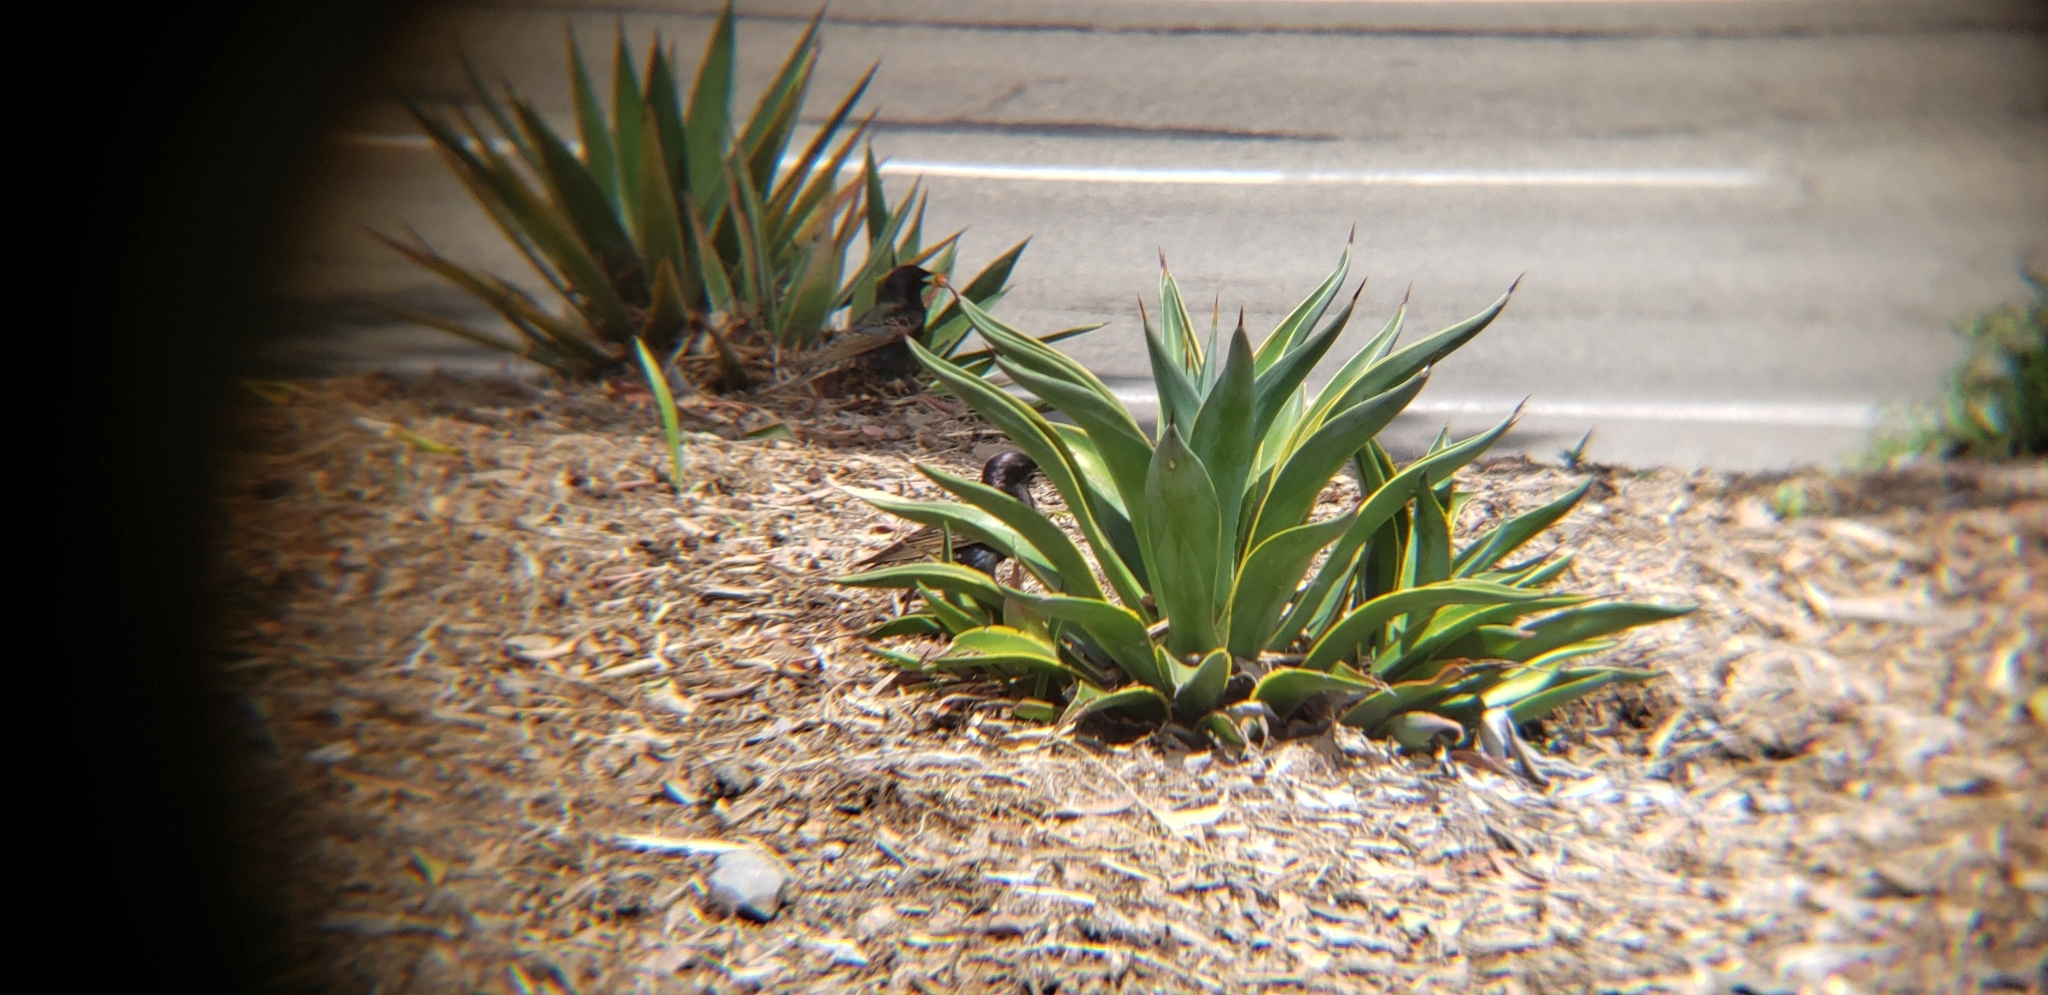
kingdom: Animalia
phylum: Chordata
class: Aves
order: Passeriformes
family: Sturnidae
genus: Sturnus
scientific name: Sturnus vulgaris
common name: Common starling
